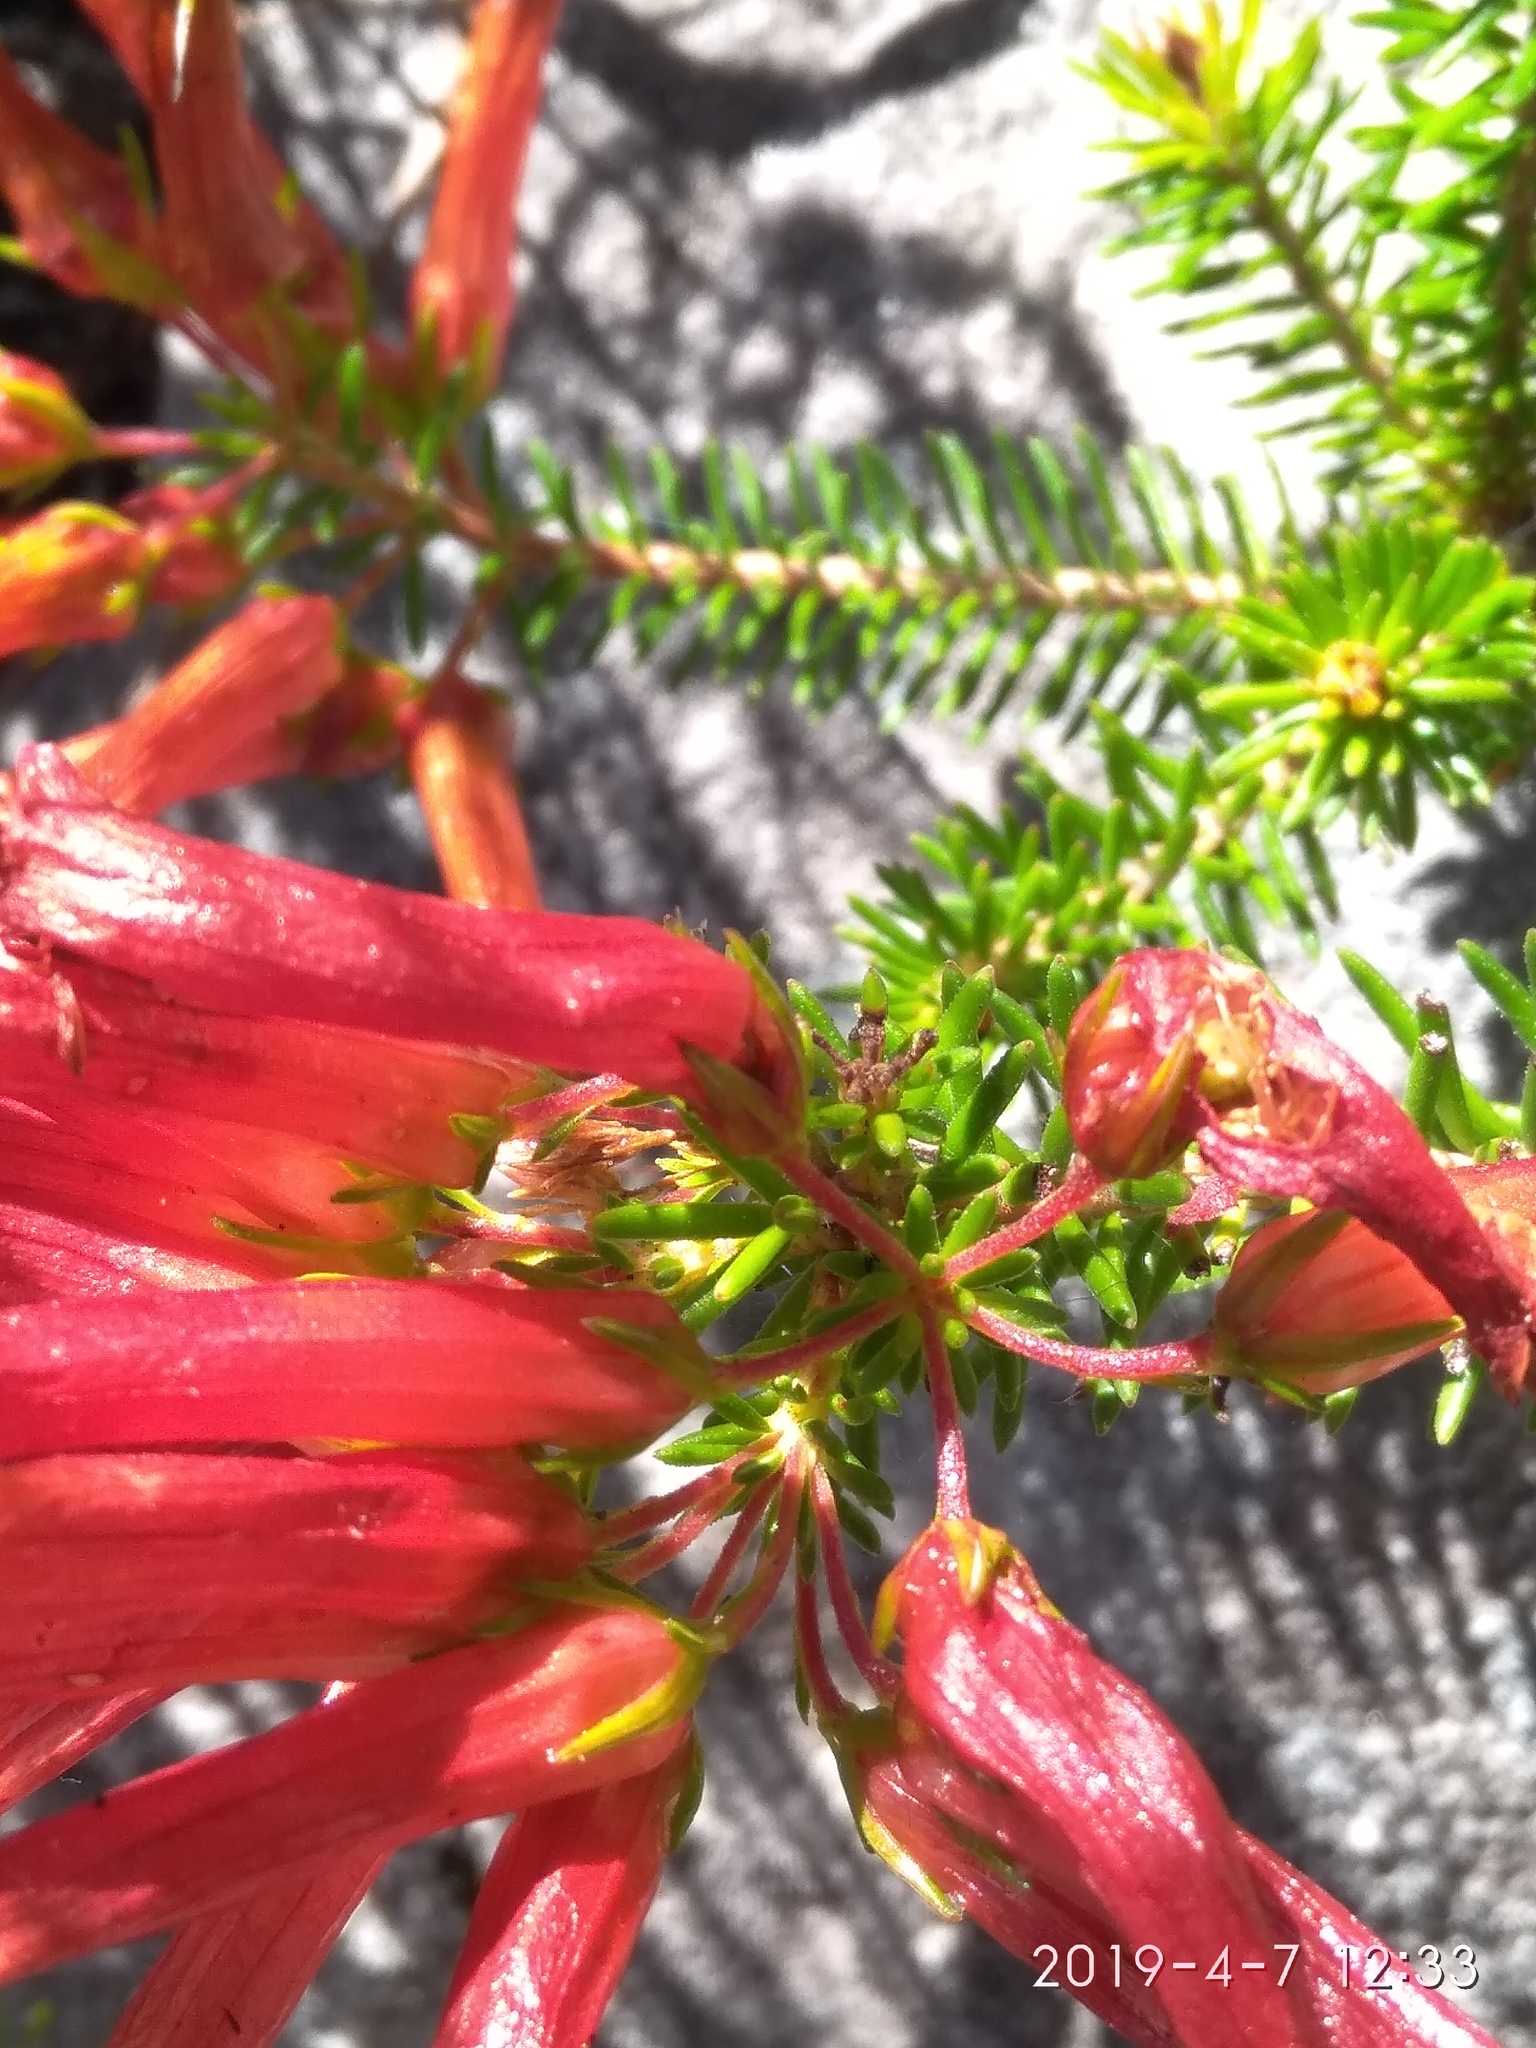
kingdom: Plantae
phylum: Tracheophyta
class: Magnoliopsida
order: Ericales
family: Ericaceae
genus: Erica
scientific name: Erica nevillei
